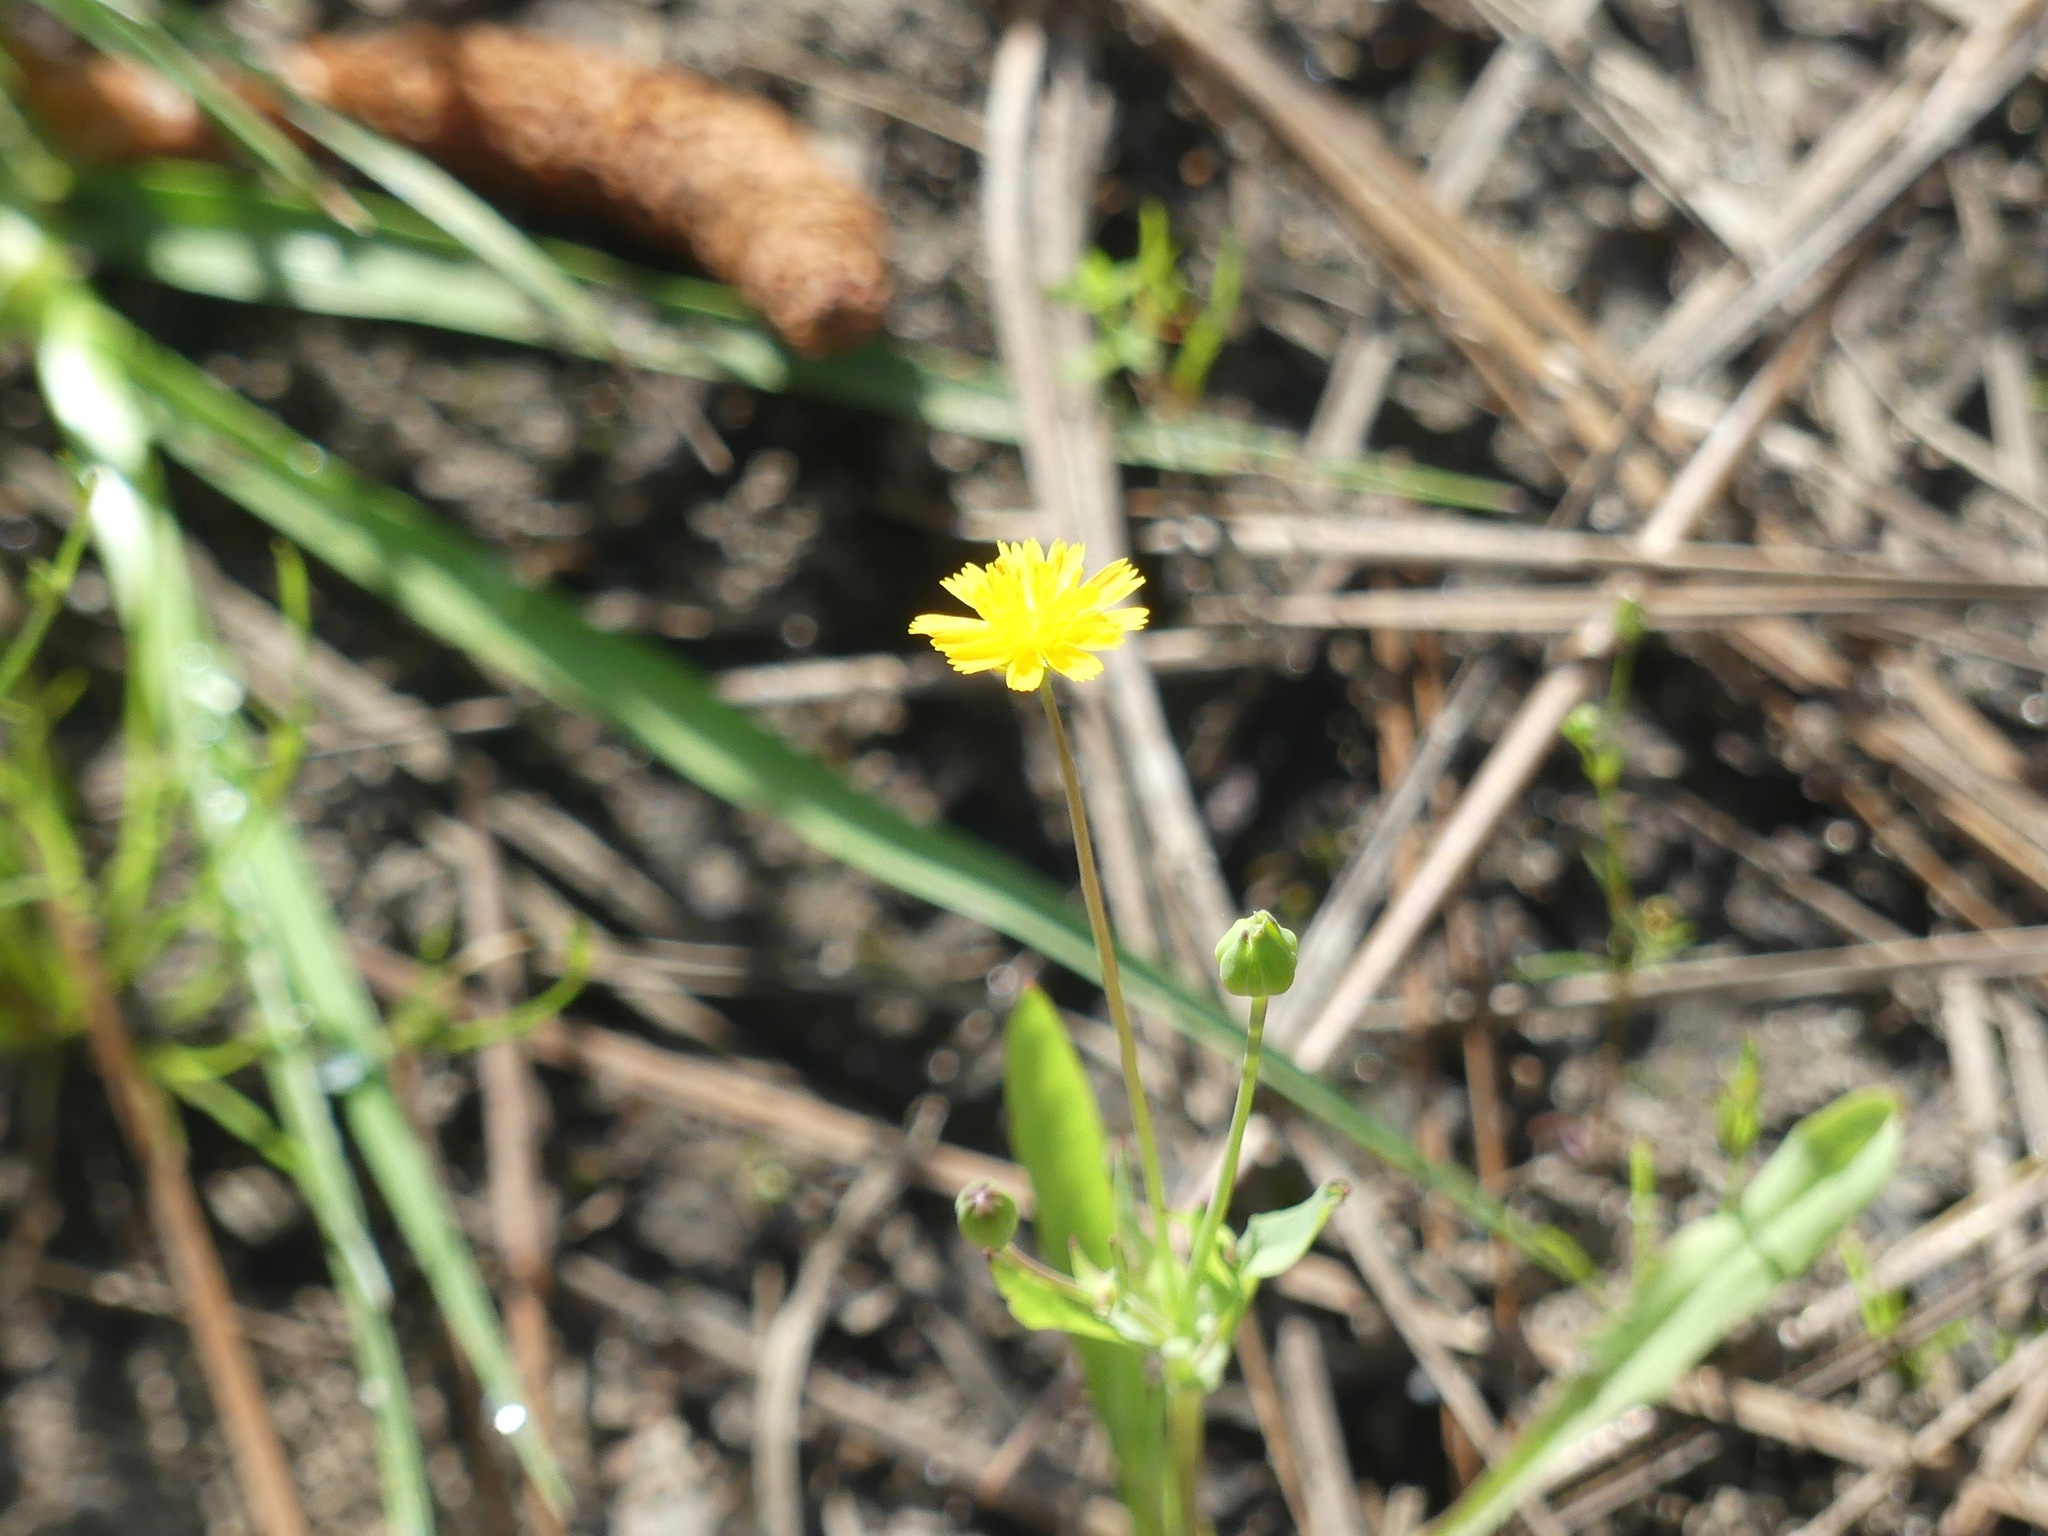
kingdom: Plantae
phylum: Tracheophyta
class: Magnoliopsida
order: Asterales
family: Asteraceae
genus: Krigia
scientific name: Krigia cespitosa
